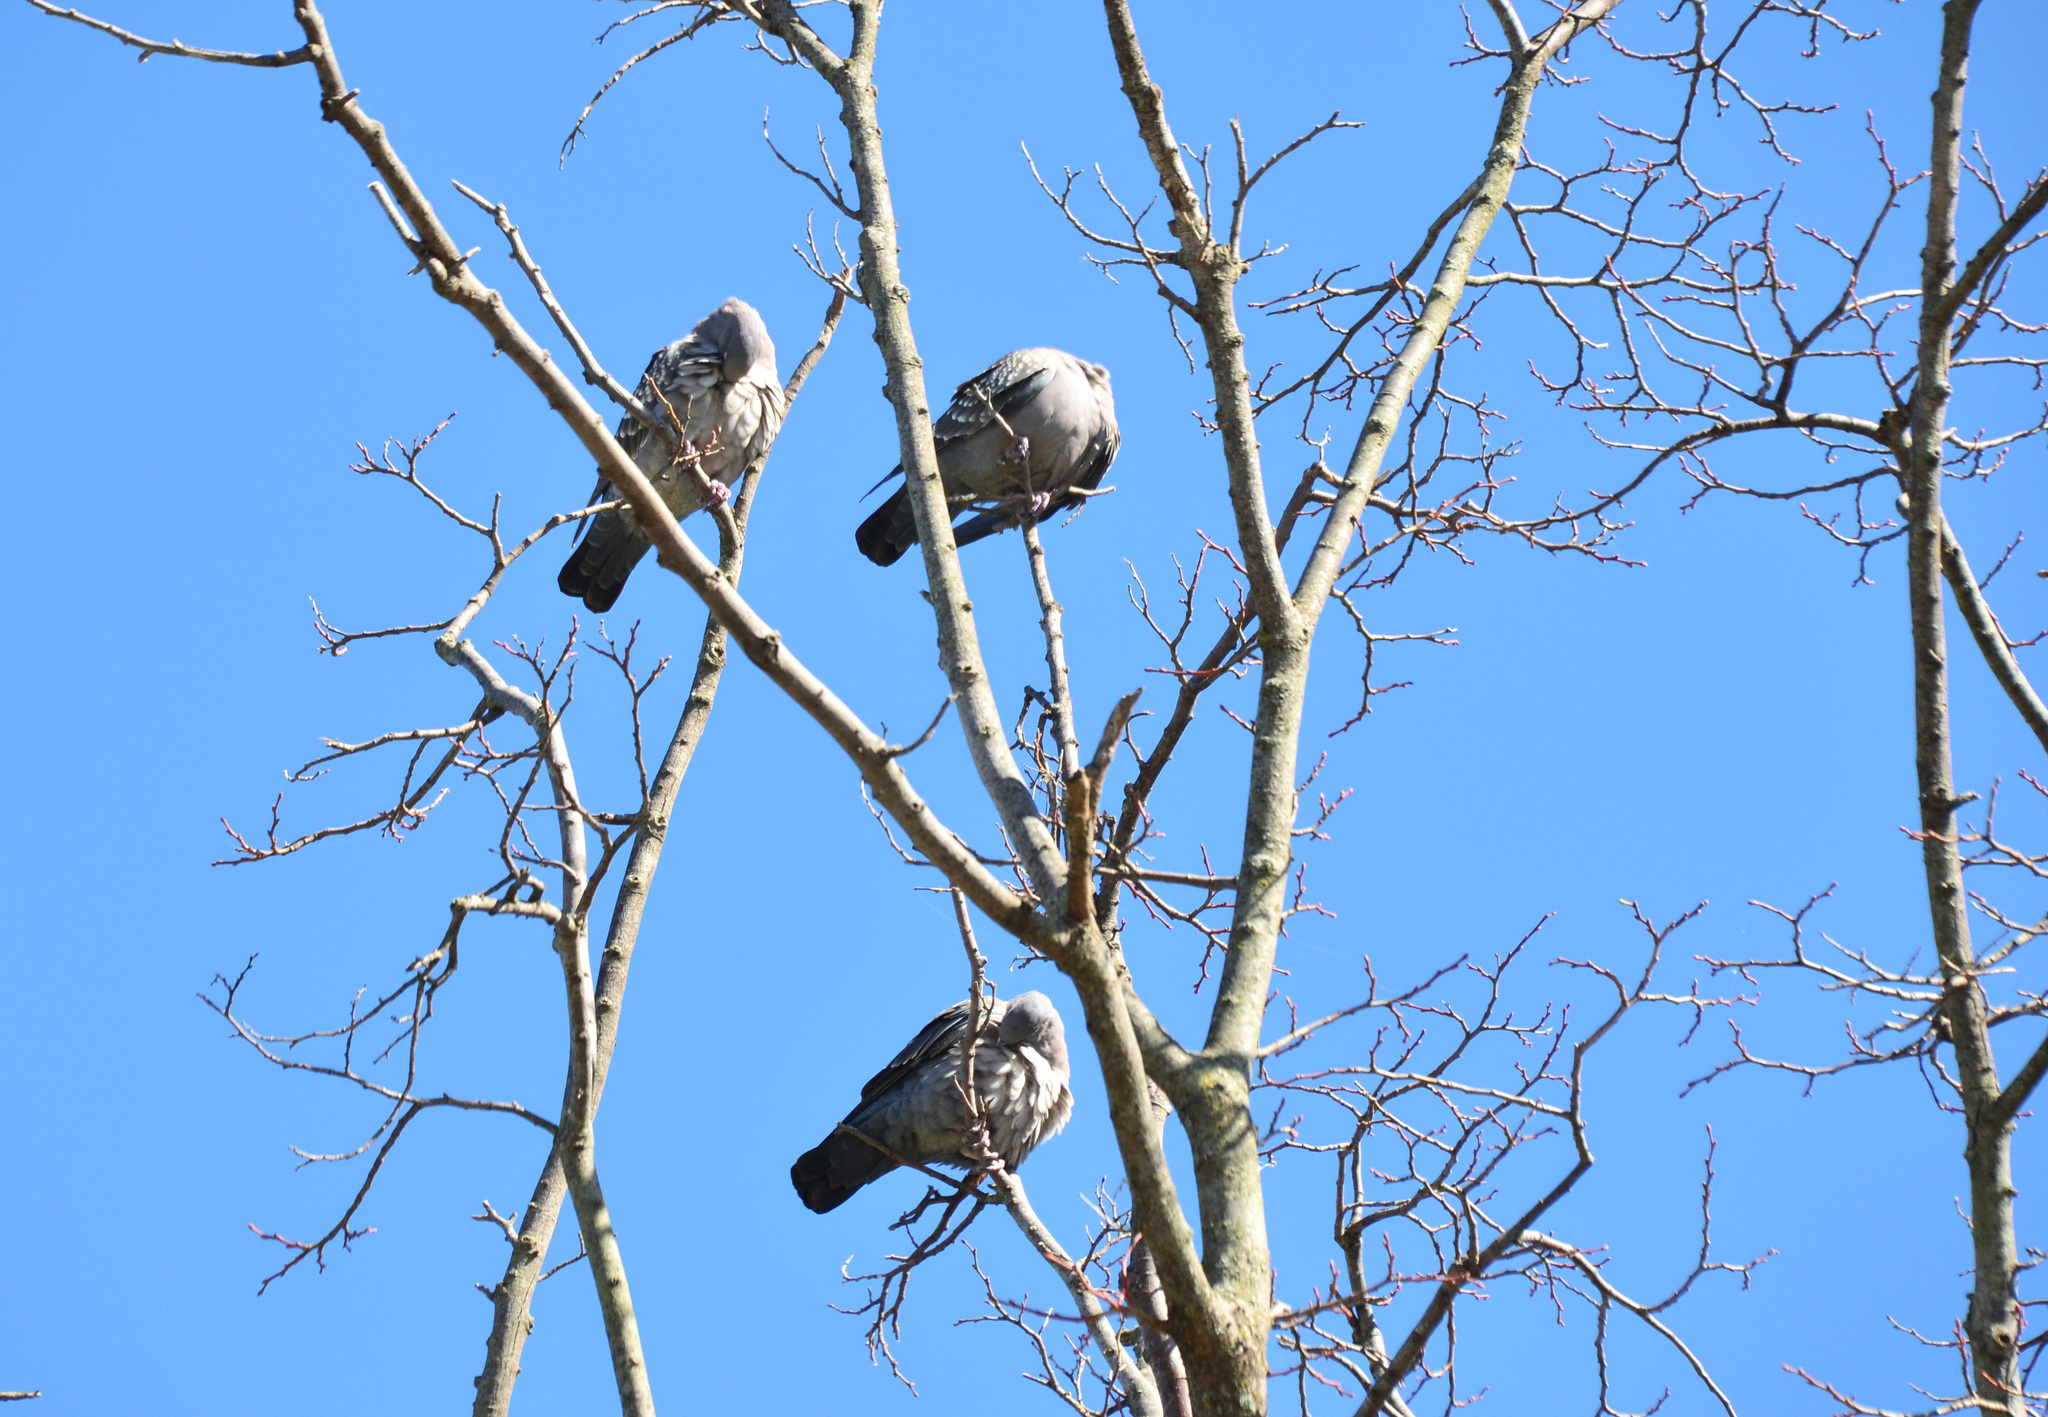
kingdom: Animalia
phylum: Chordata
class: Aves
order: Columbiformes
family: Columbidae
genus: Patagioenas
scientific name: Patagioenas picazuro
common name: Picazuro pigeon
